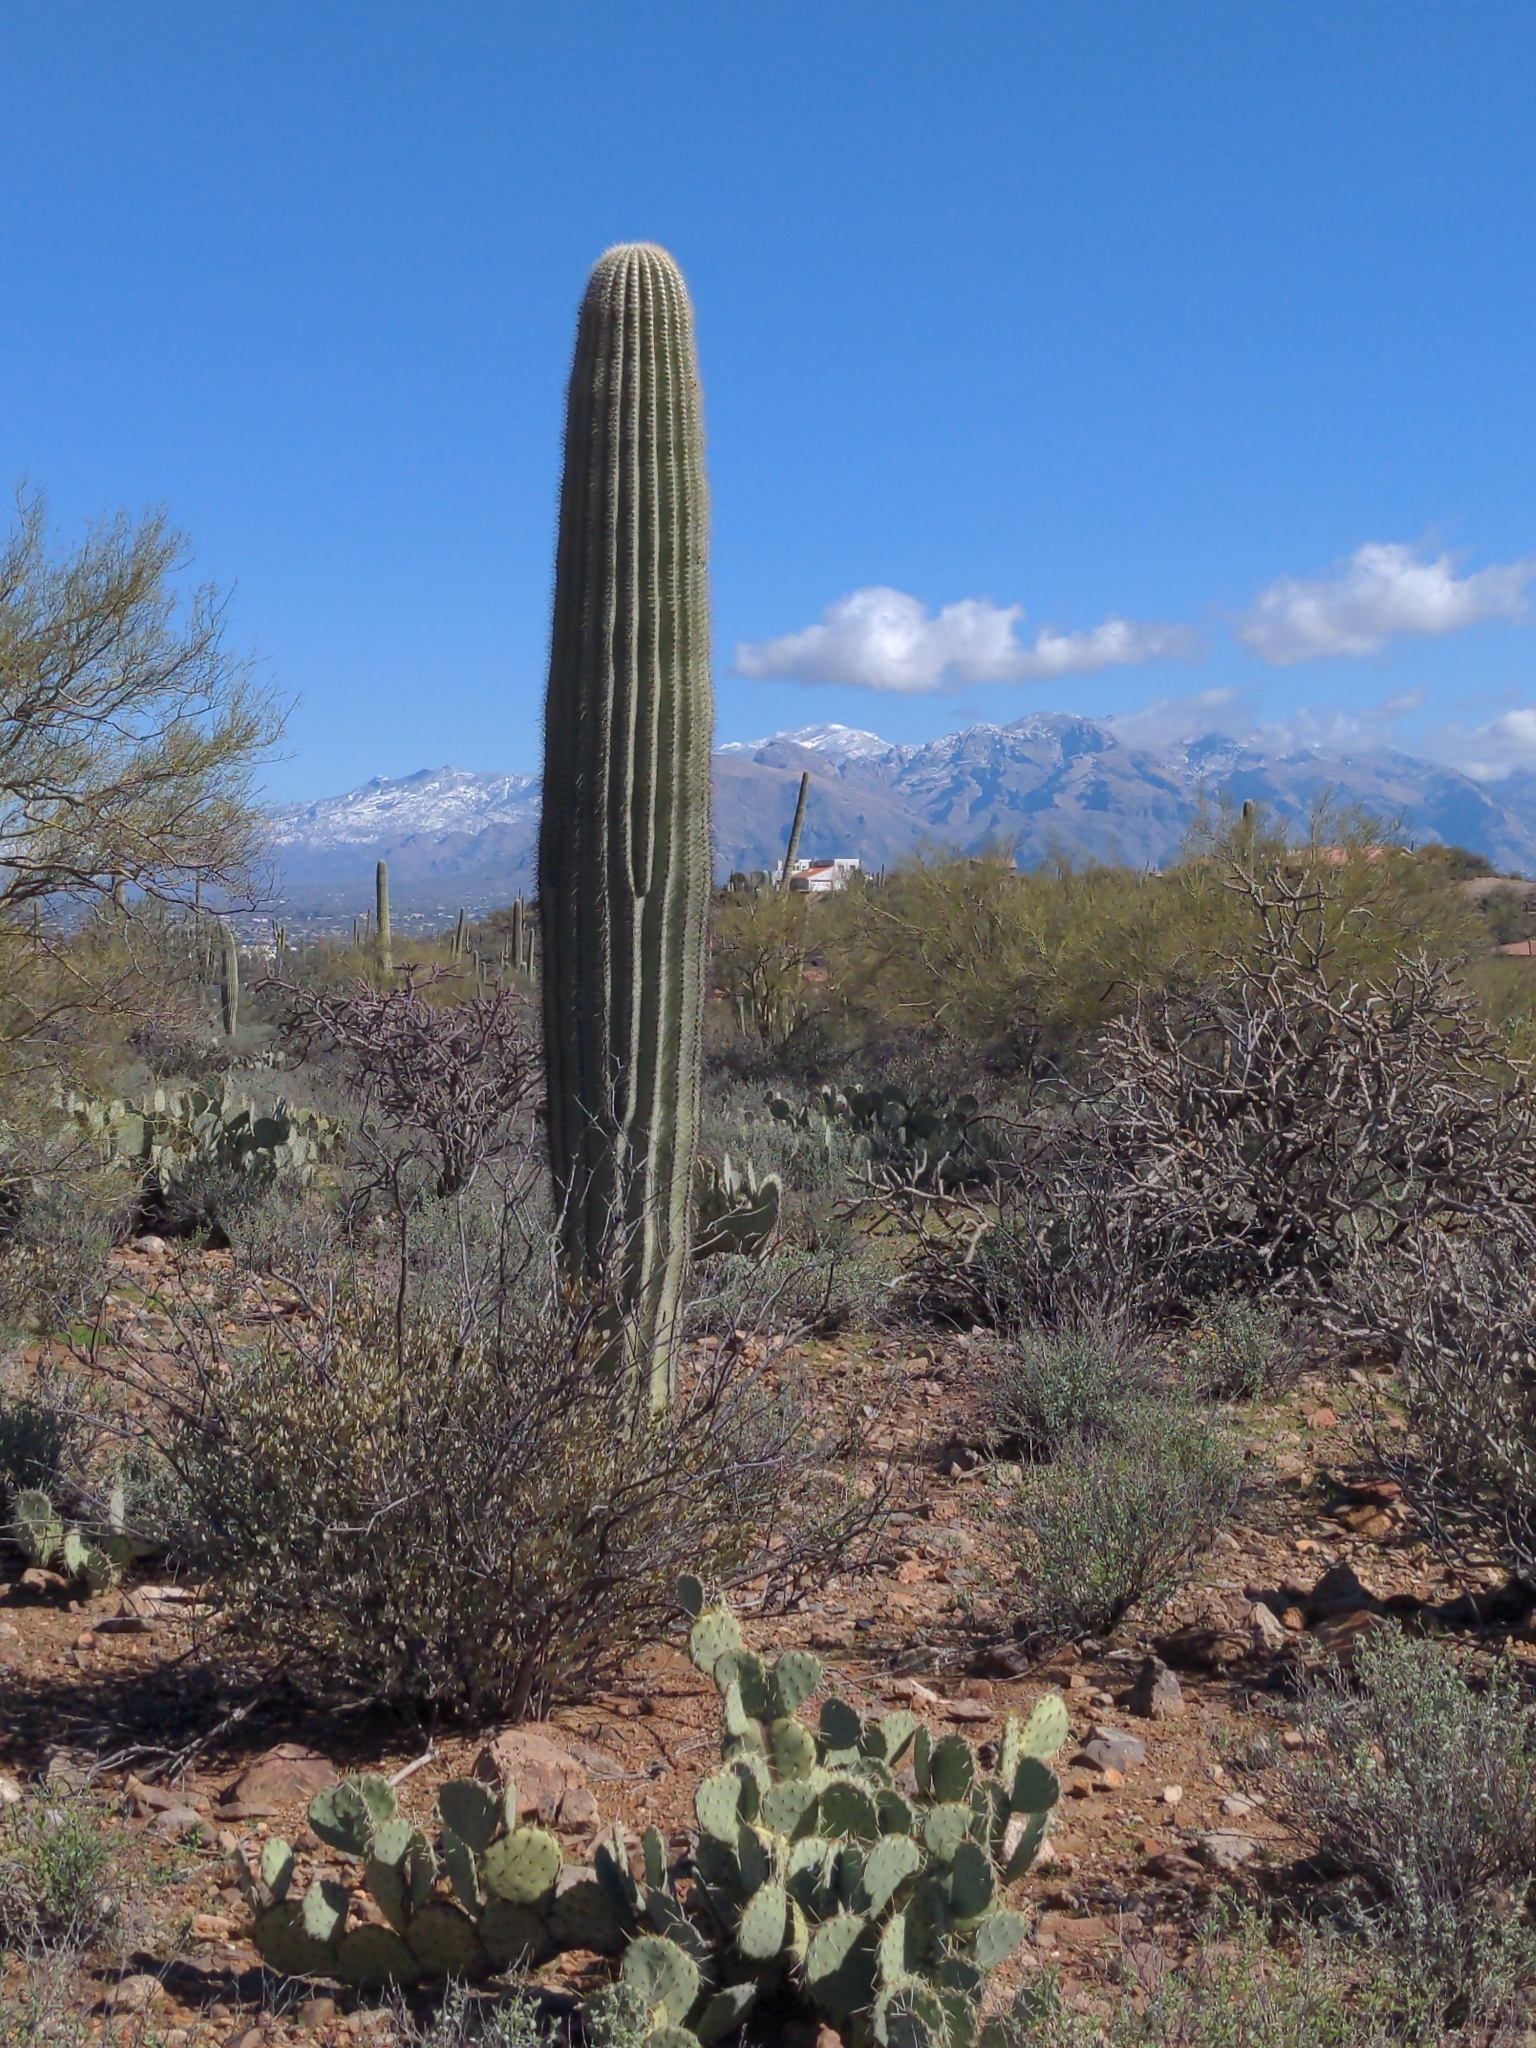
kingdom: Plantae
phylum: Tracheophyta
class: Magnoliopsida
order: Caryophyllales
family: Cactaceae
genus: Carnegiea
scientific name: Carnegiea gigantea
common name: Saguaro
